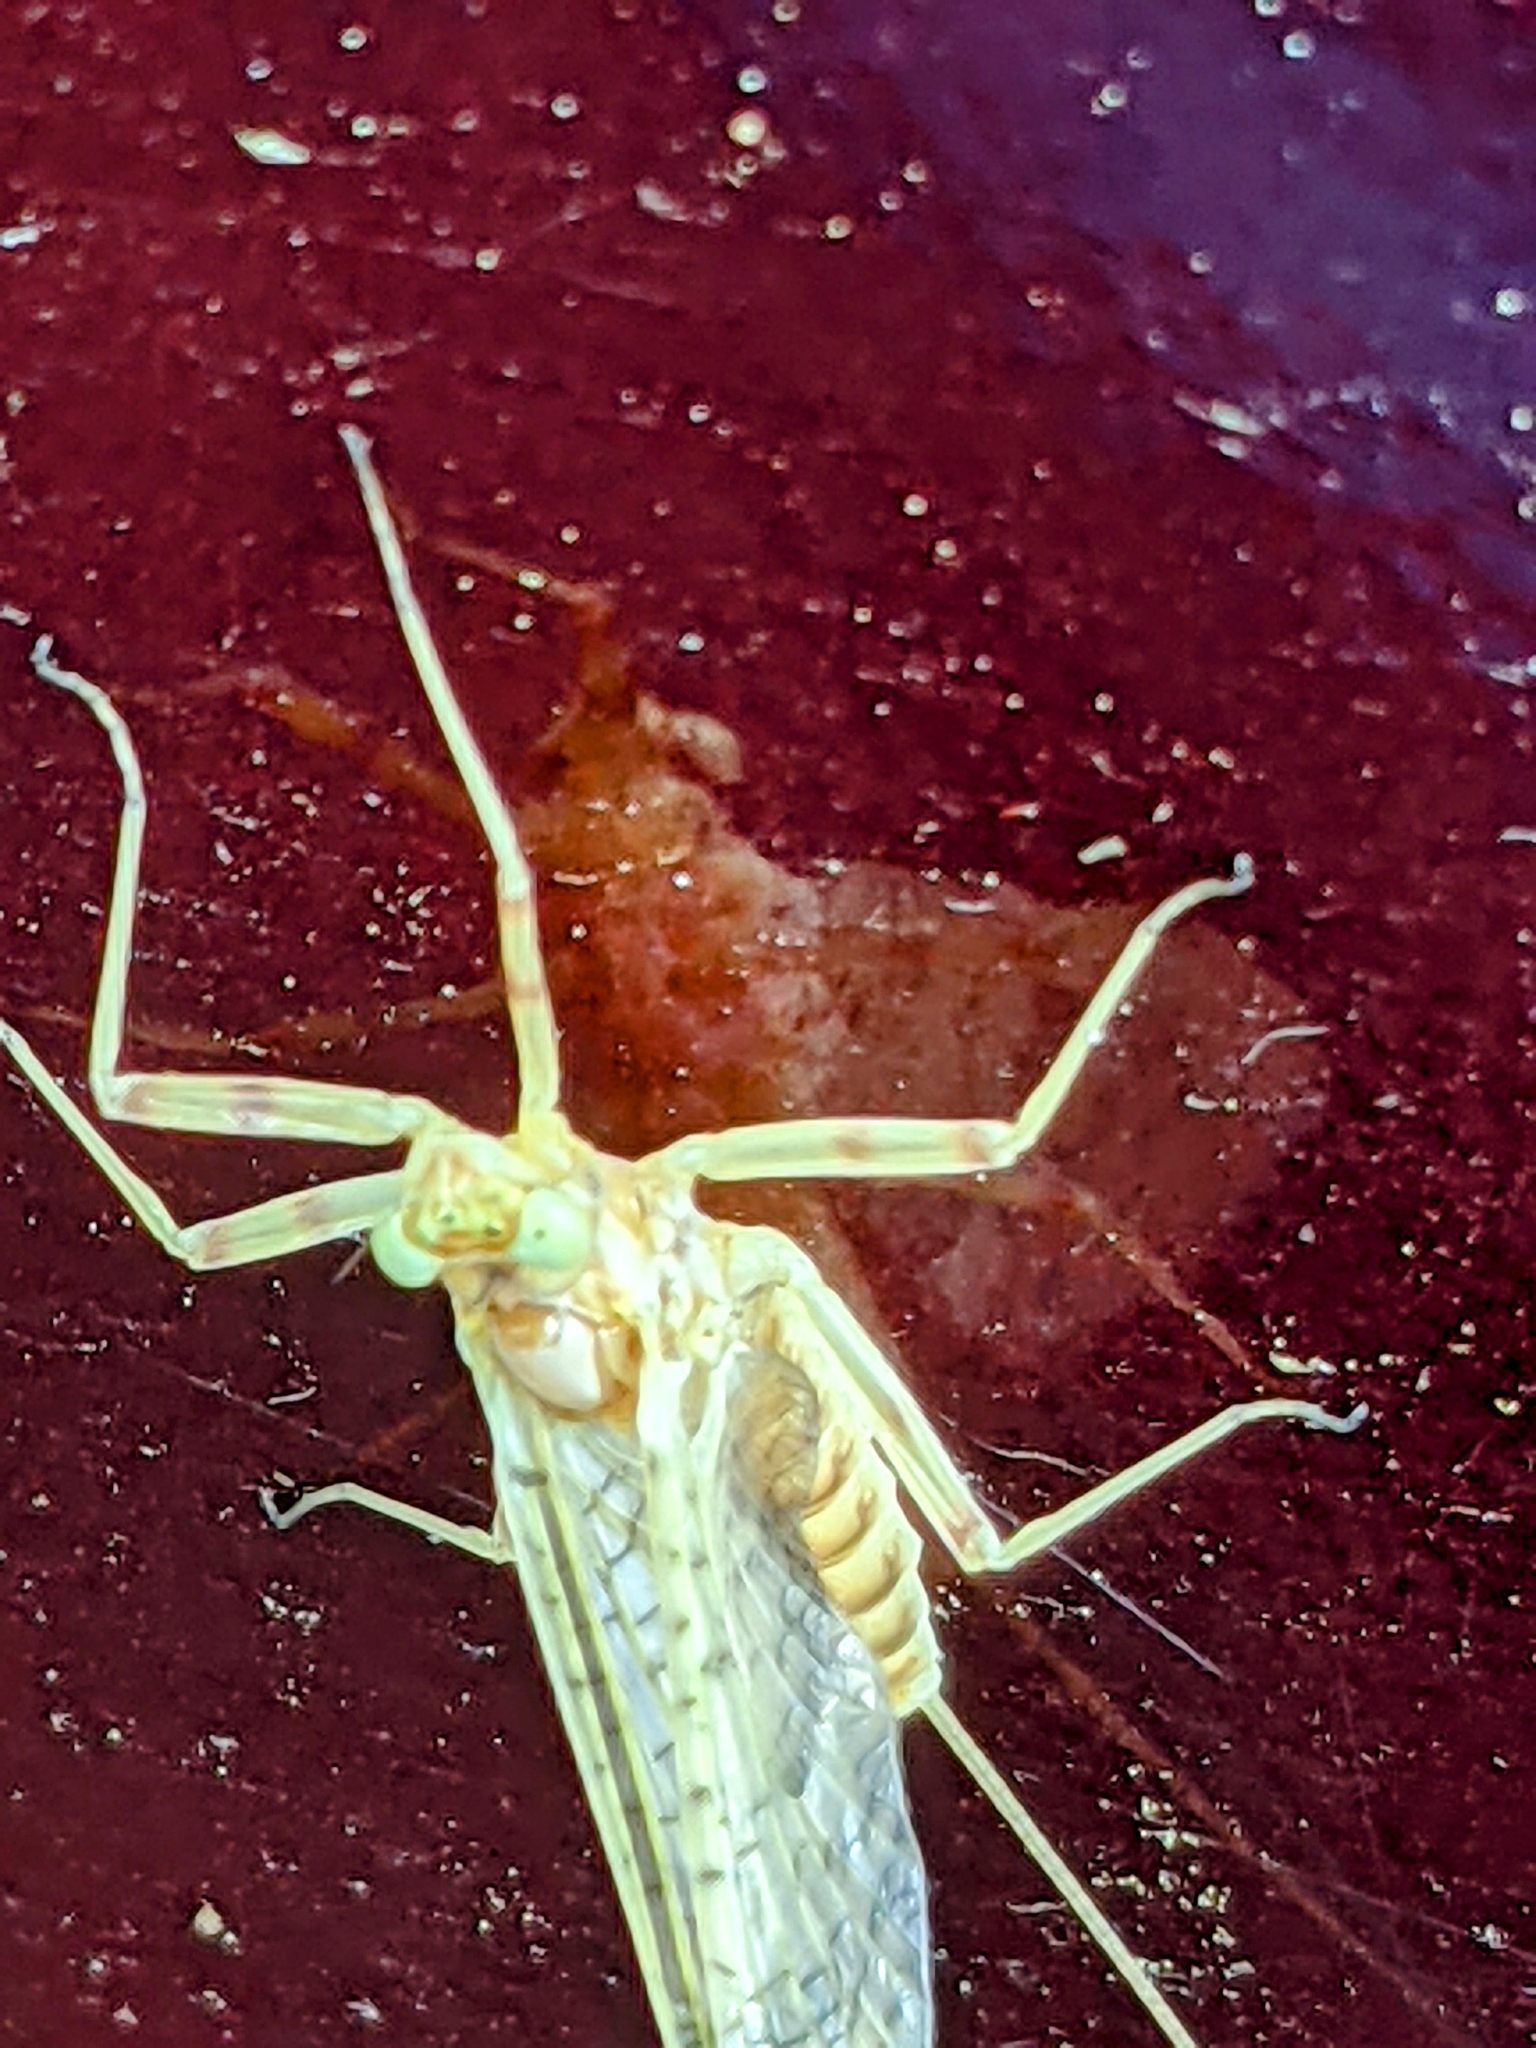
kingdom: Animalia
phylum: Arthropoda
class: Insecta
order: Ephemeroptera
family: Heptageniidae
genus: Maccaffertium
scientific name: Maccaffertium vicarium
